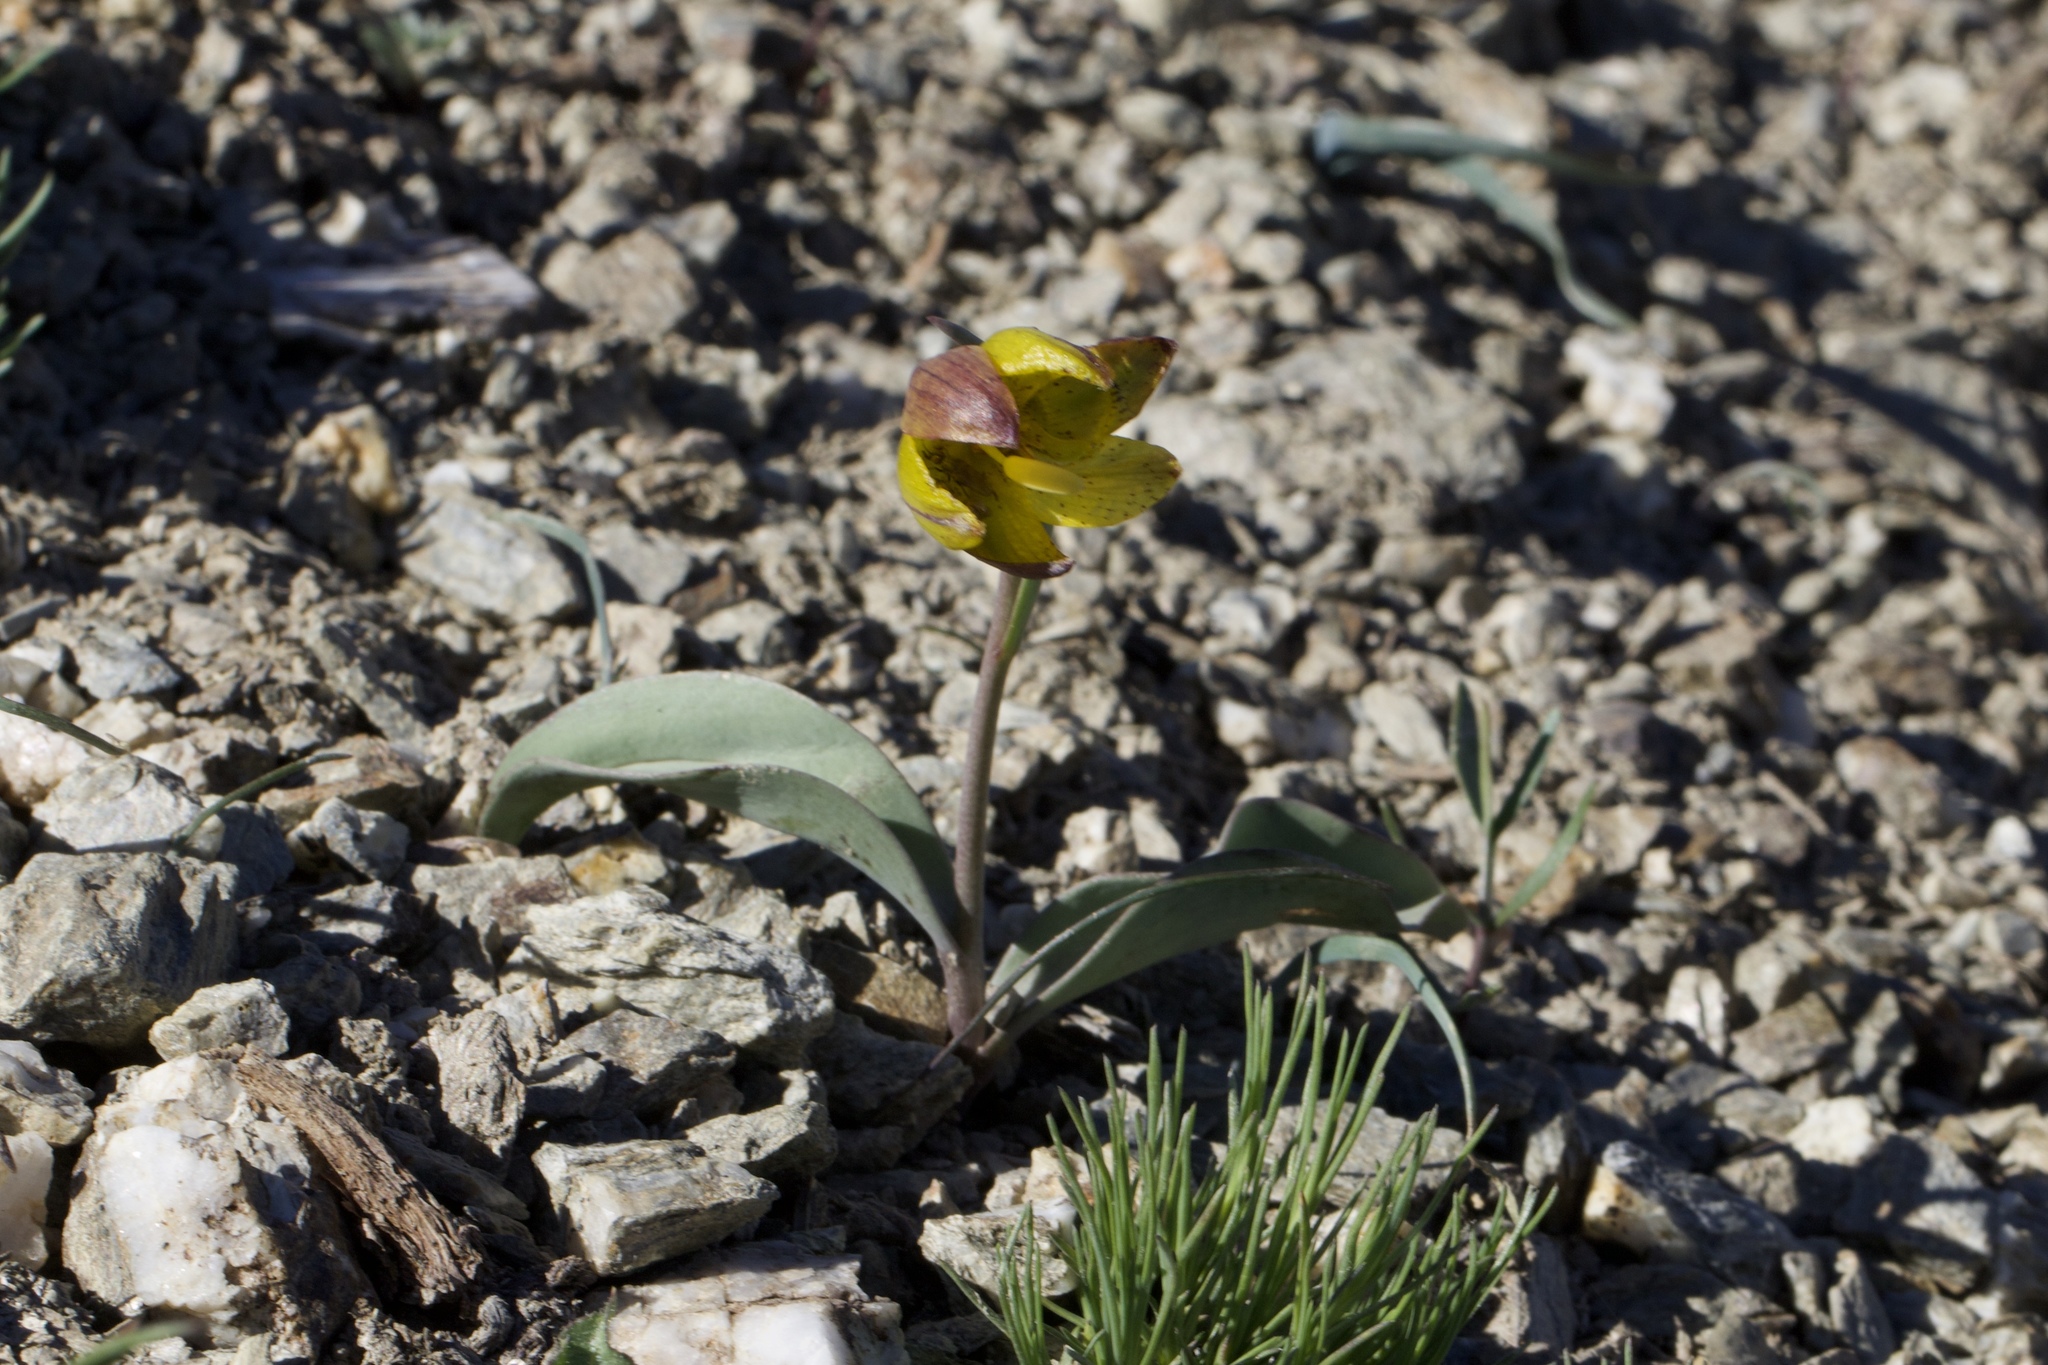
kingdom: Plantae
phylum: Tracheophyta
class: Liliopsida
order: Liliales
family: Liliaceae
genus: Fritillaria
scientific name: Fritillaria glauca
